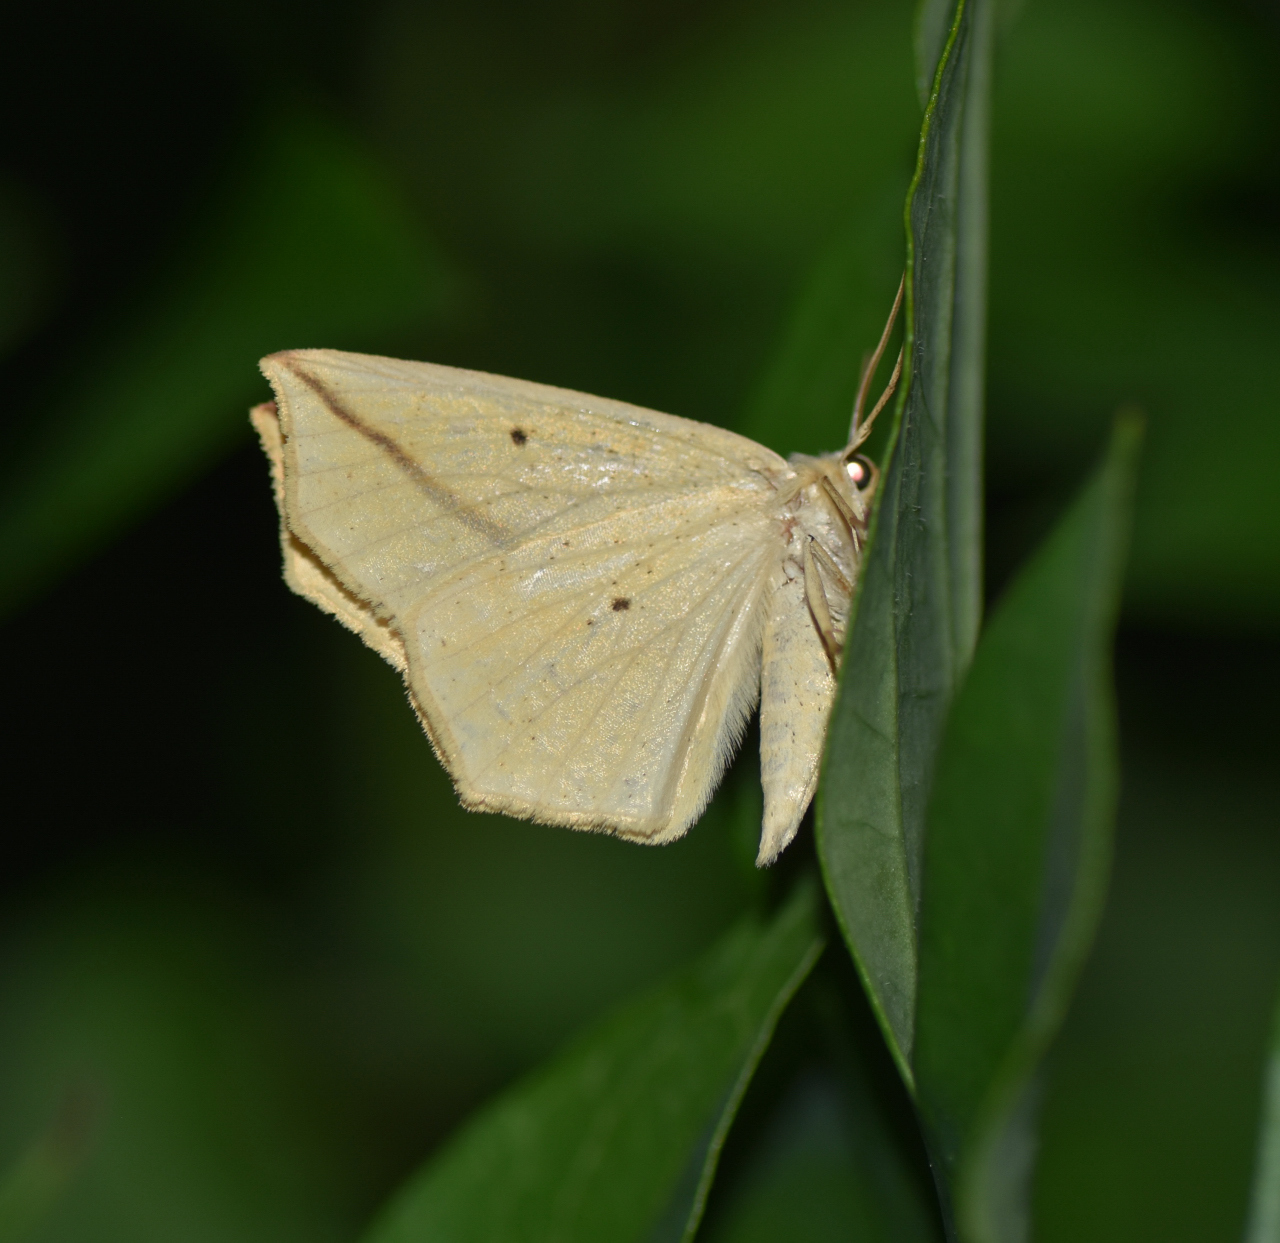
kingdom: Animalia
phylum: Arthropoda
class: Insecta
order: Lepidoptera
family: Geometridae
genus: Tetracis
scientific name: Tetracis crocallata
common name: Yellow slant-line
